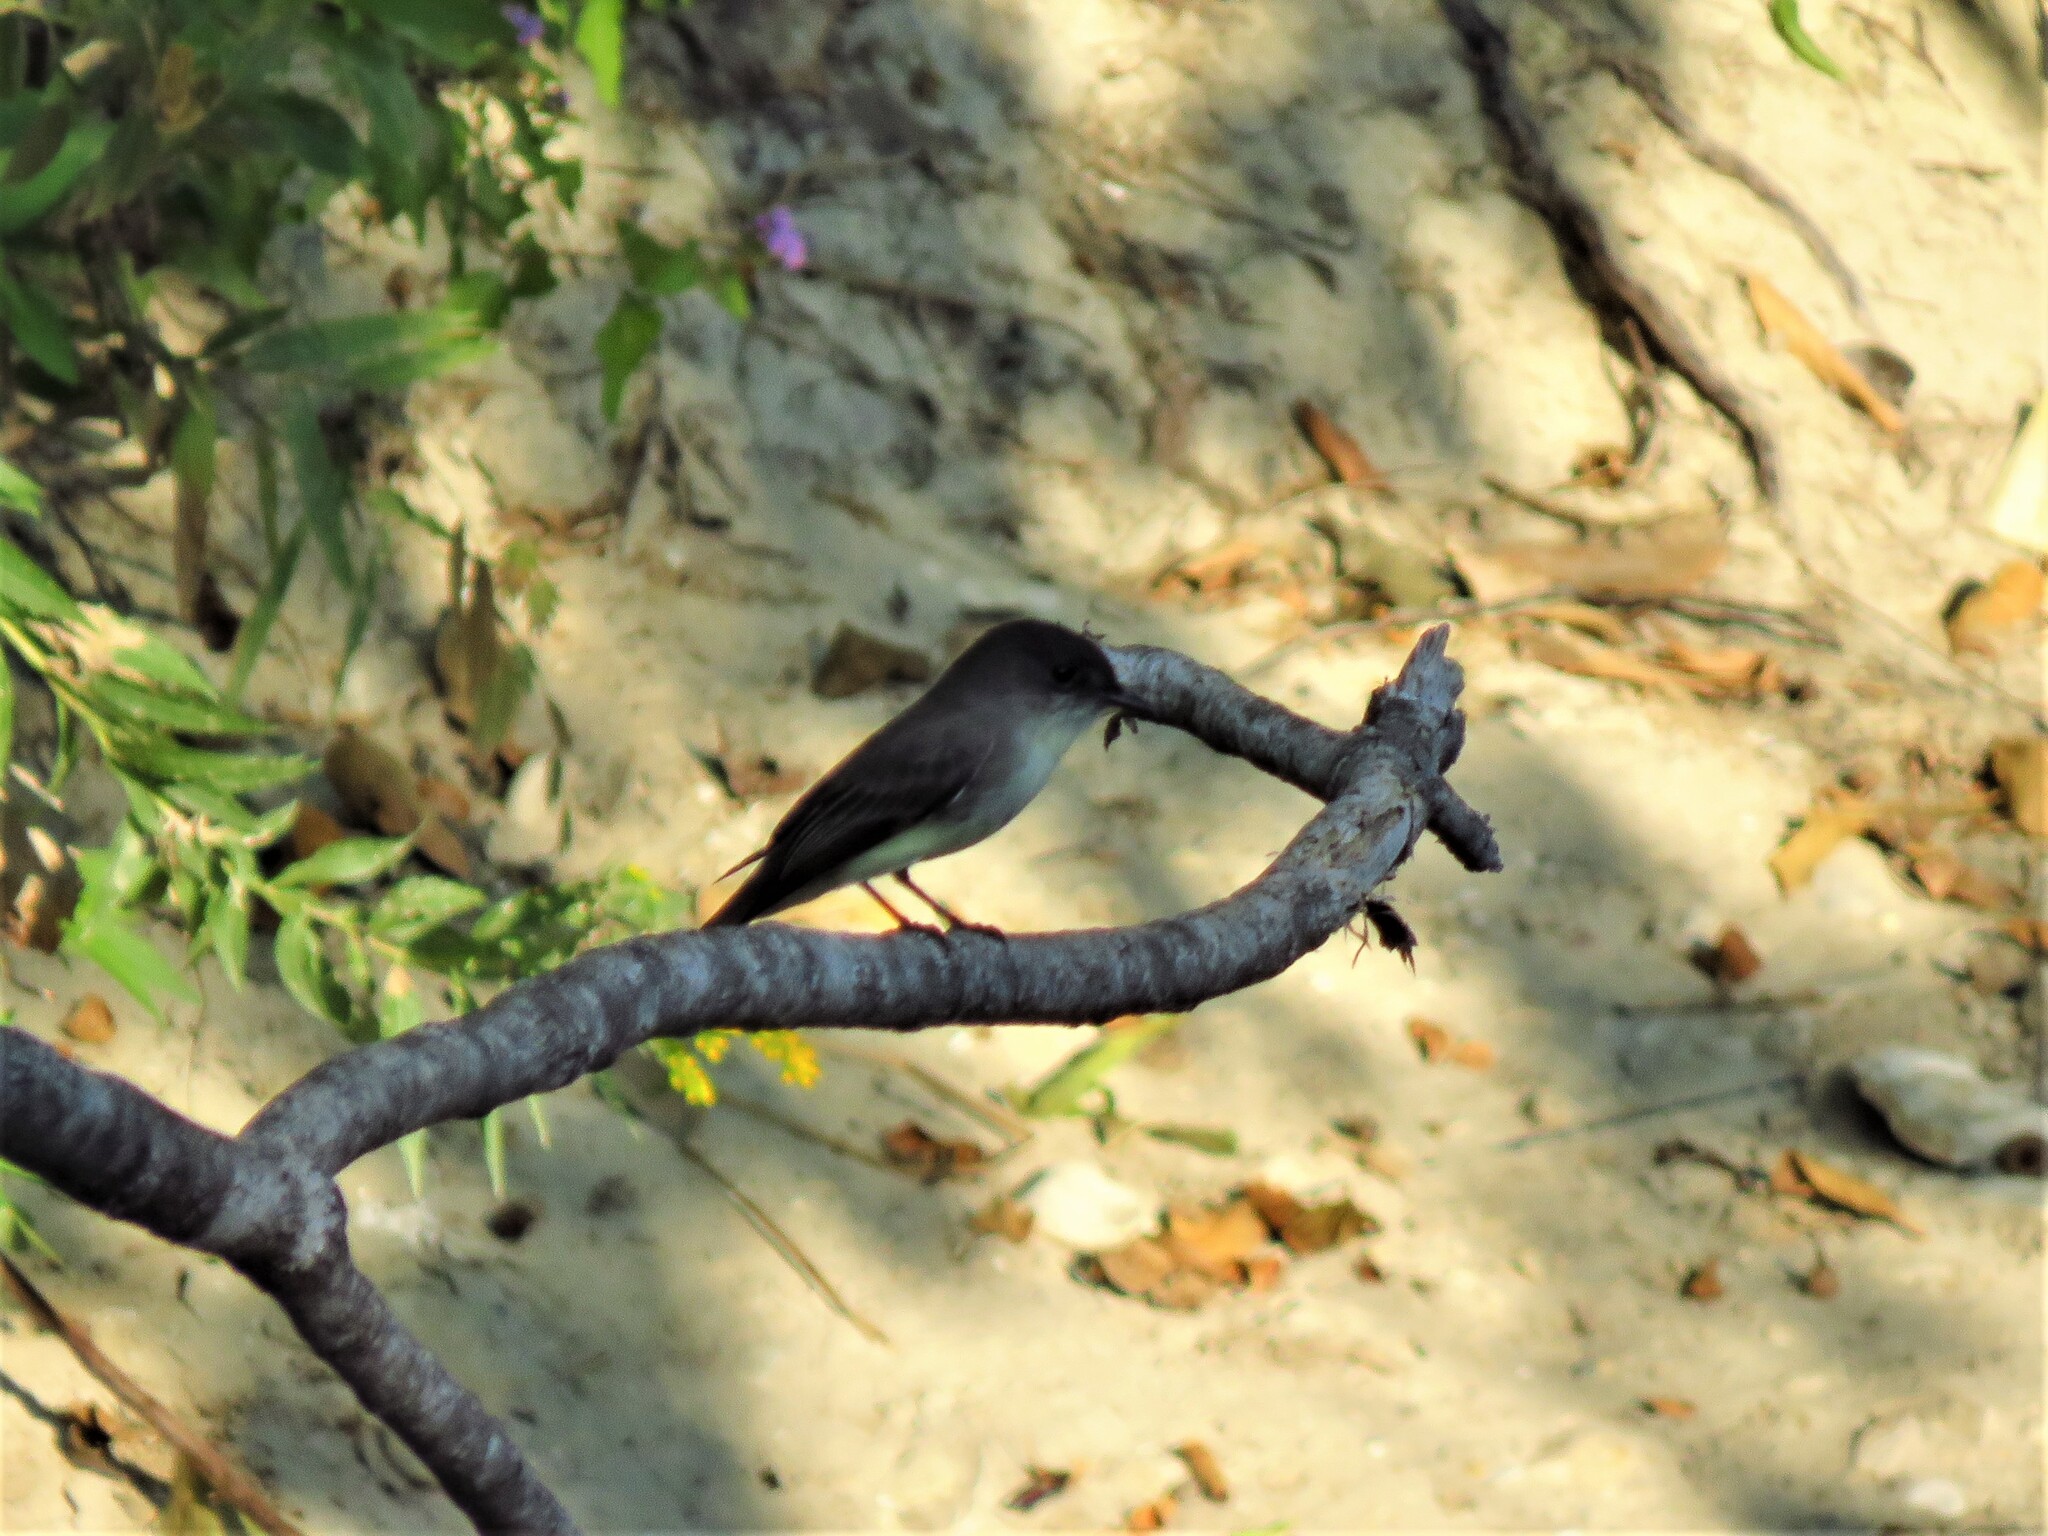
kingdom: Animalia
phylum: Chordata
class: Aves
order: Passeriformes
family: Tyrannidae
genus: Sayornis
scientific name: Sayornis phoebe
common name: Eastern phoebe
